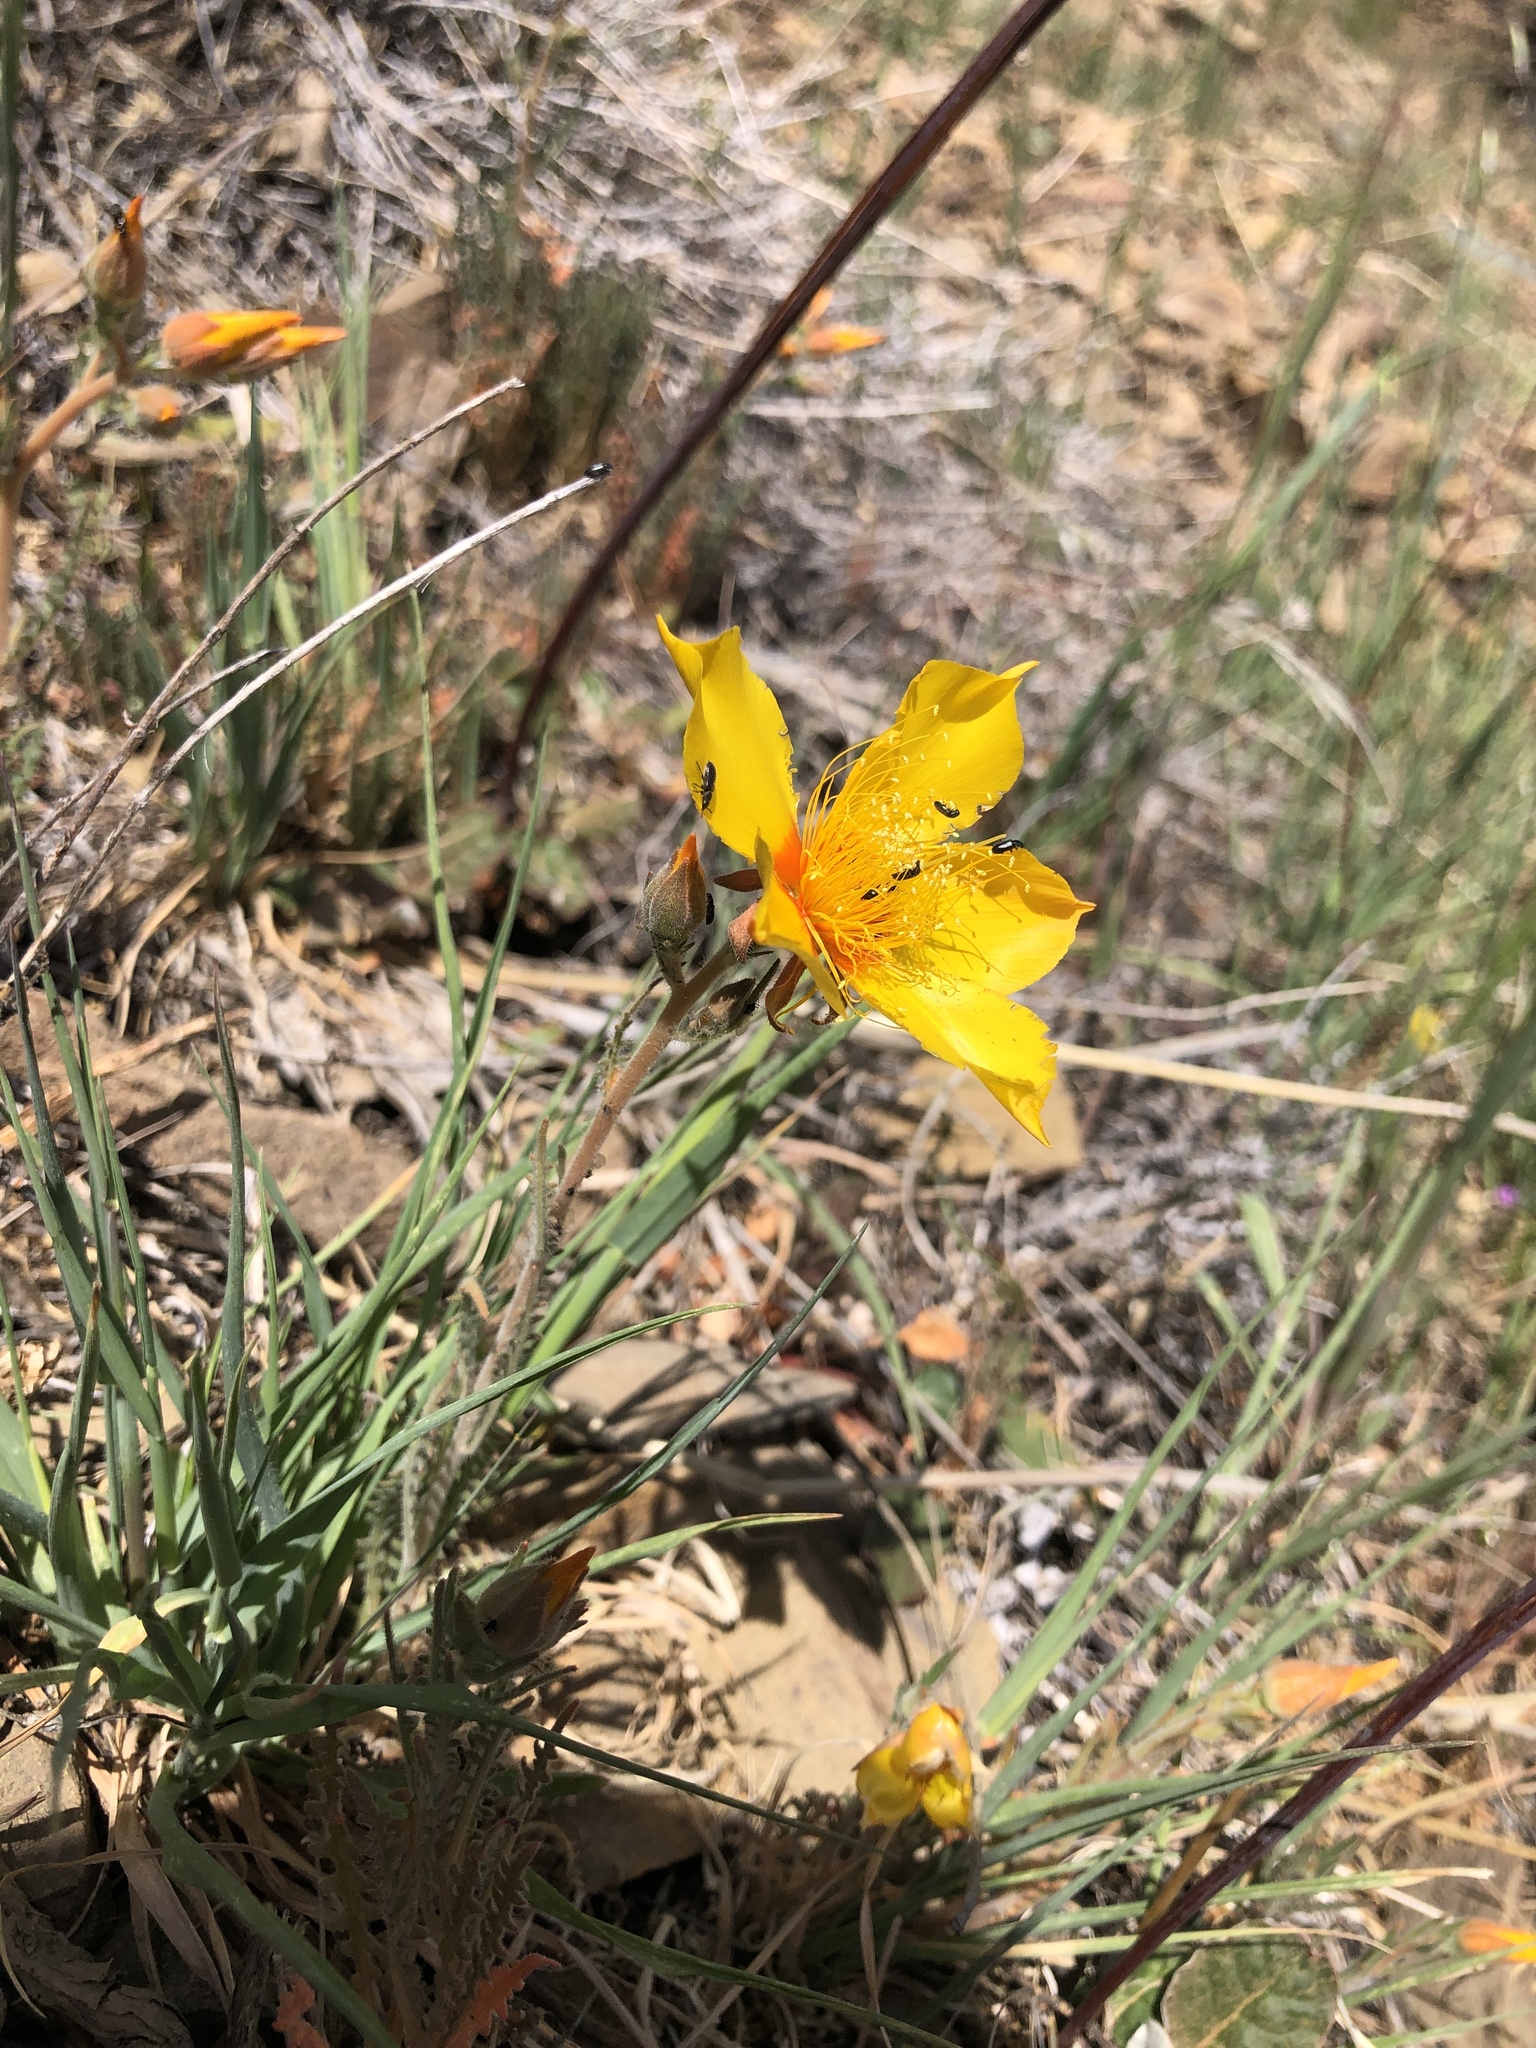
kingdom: Plantae
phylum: Tracheophyta
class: Magnoliopsida
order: Cornales
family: Loasaceae
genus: Mentzelia
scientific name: Mentzelia lindleyi
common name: Golden bartonia
